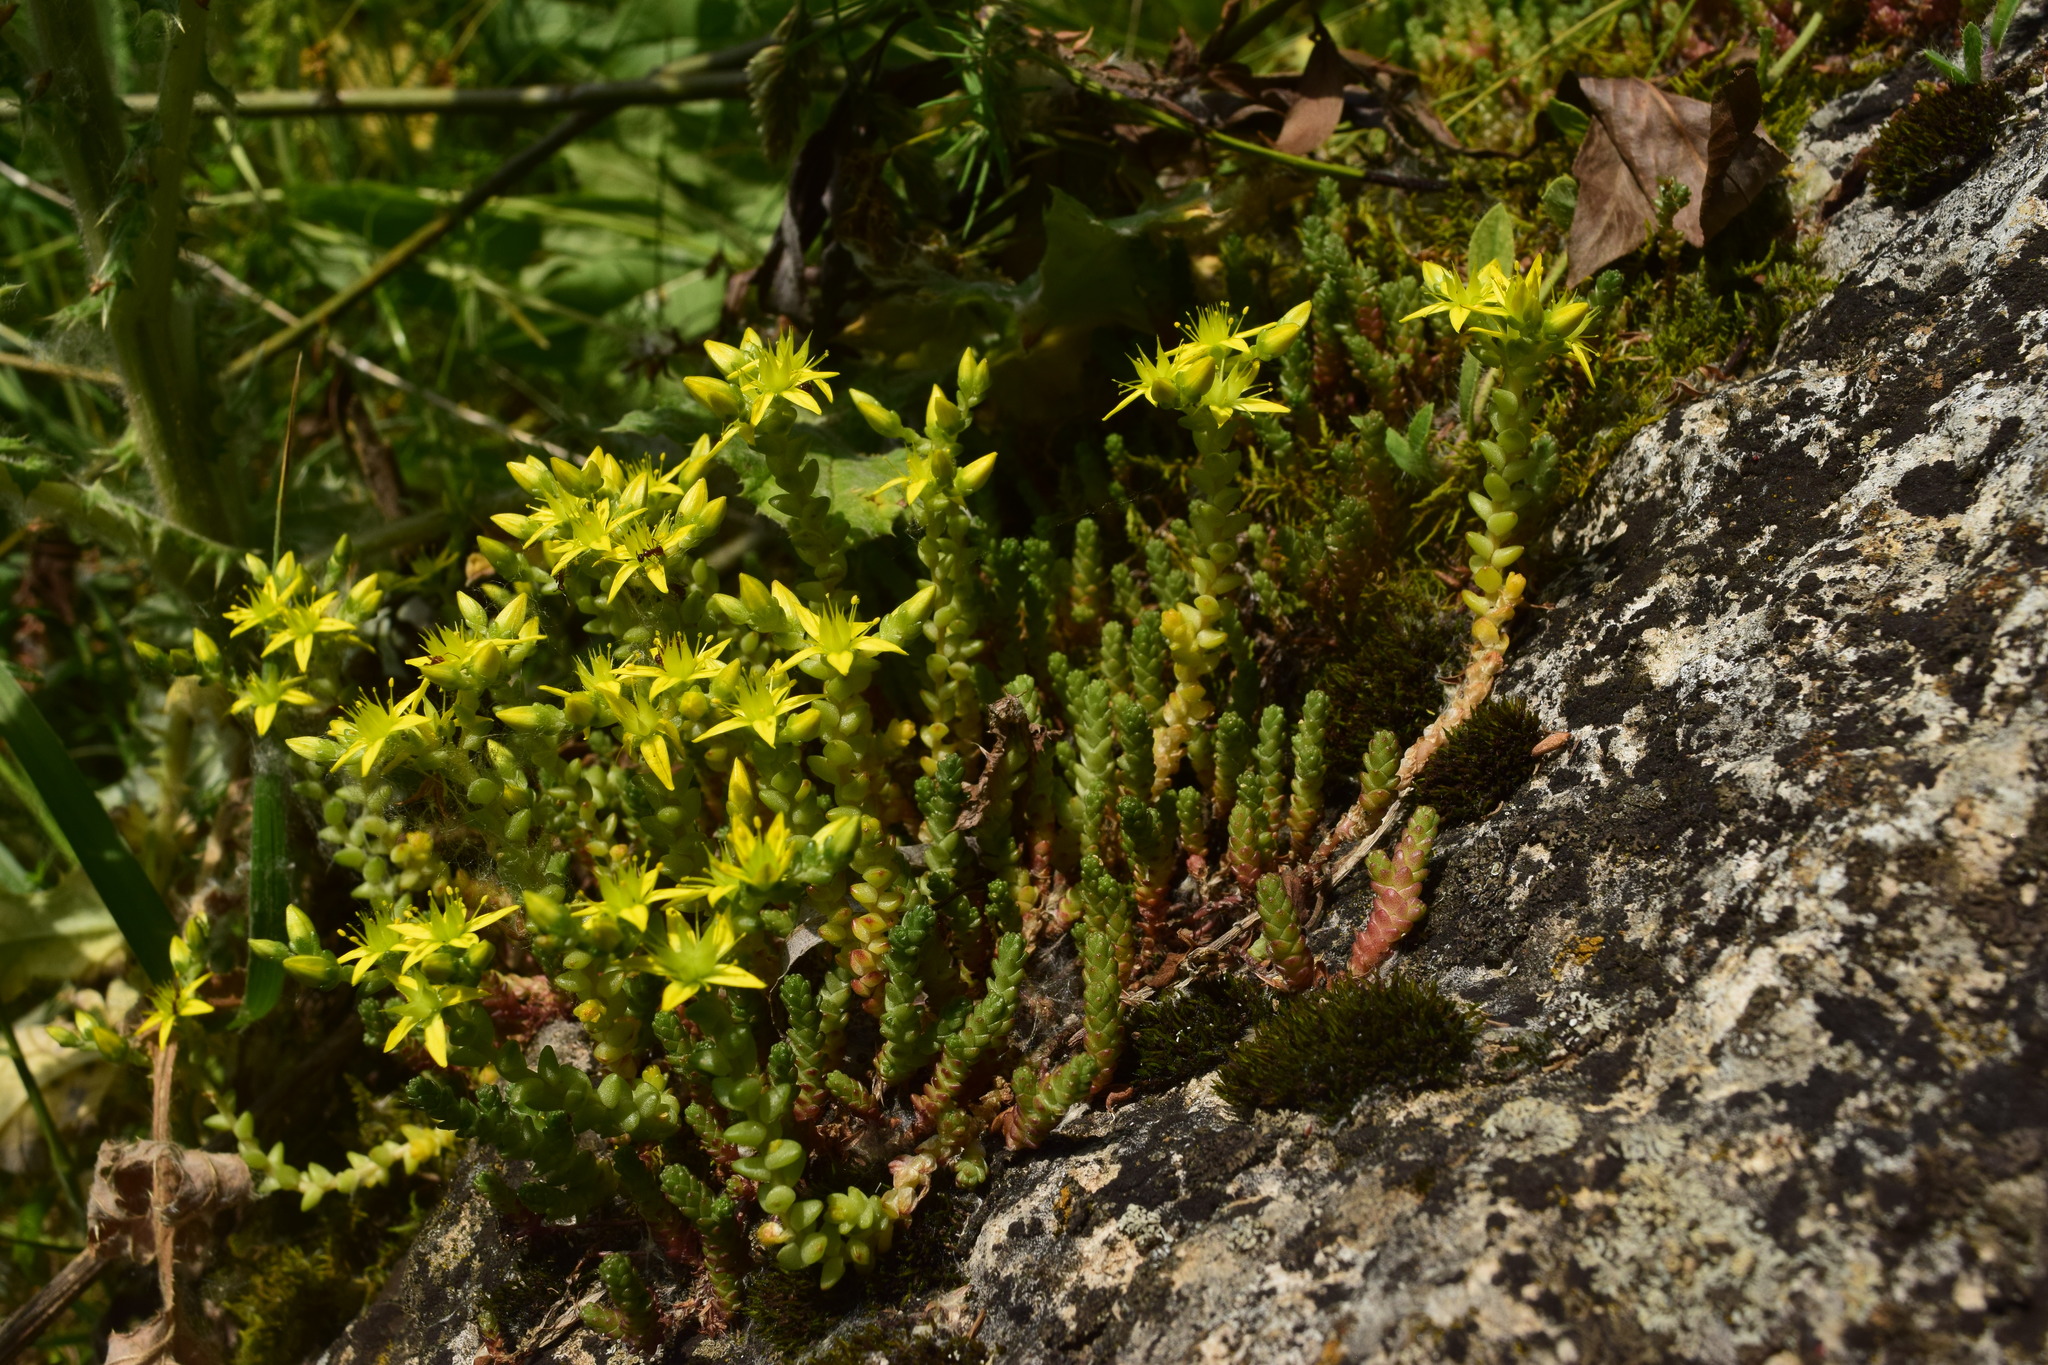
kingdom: Plantae
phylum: Tracheophyta
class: Magnoliopsida
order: Saxifragales
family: Crassulaceae
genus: Sedum
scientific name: Sedum acre
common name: Biting stonecrop
